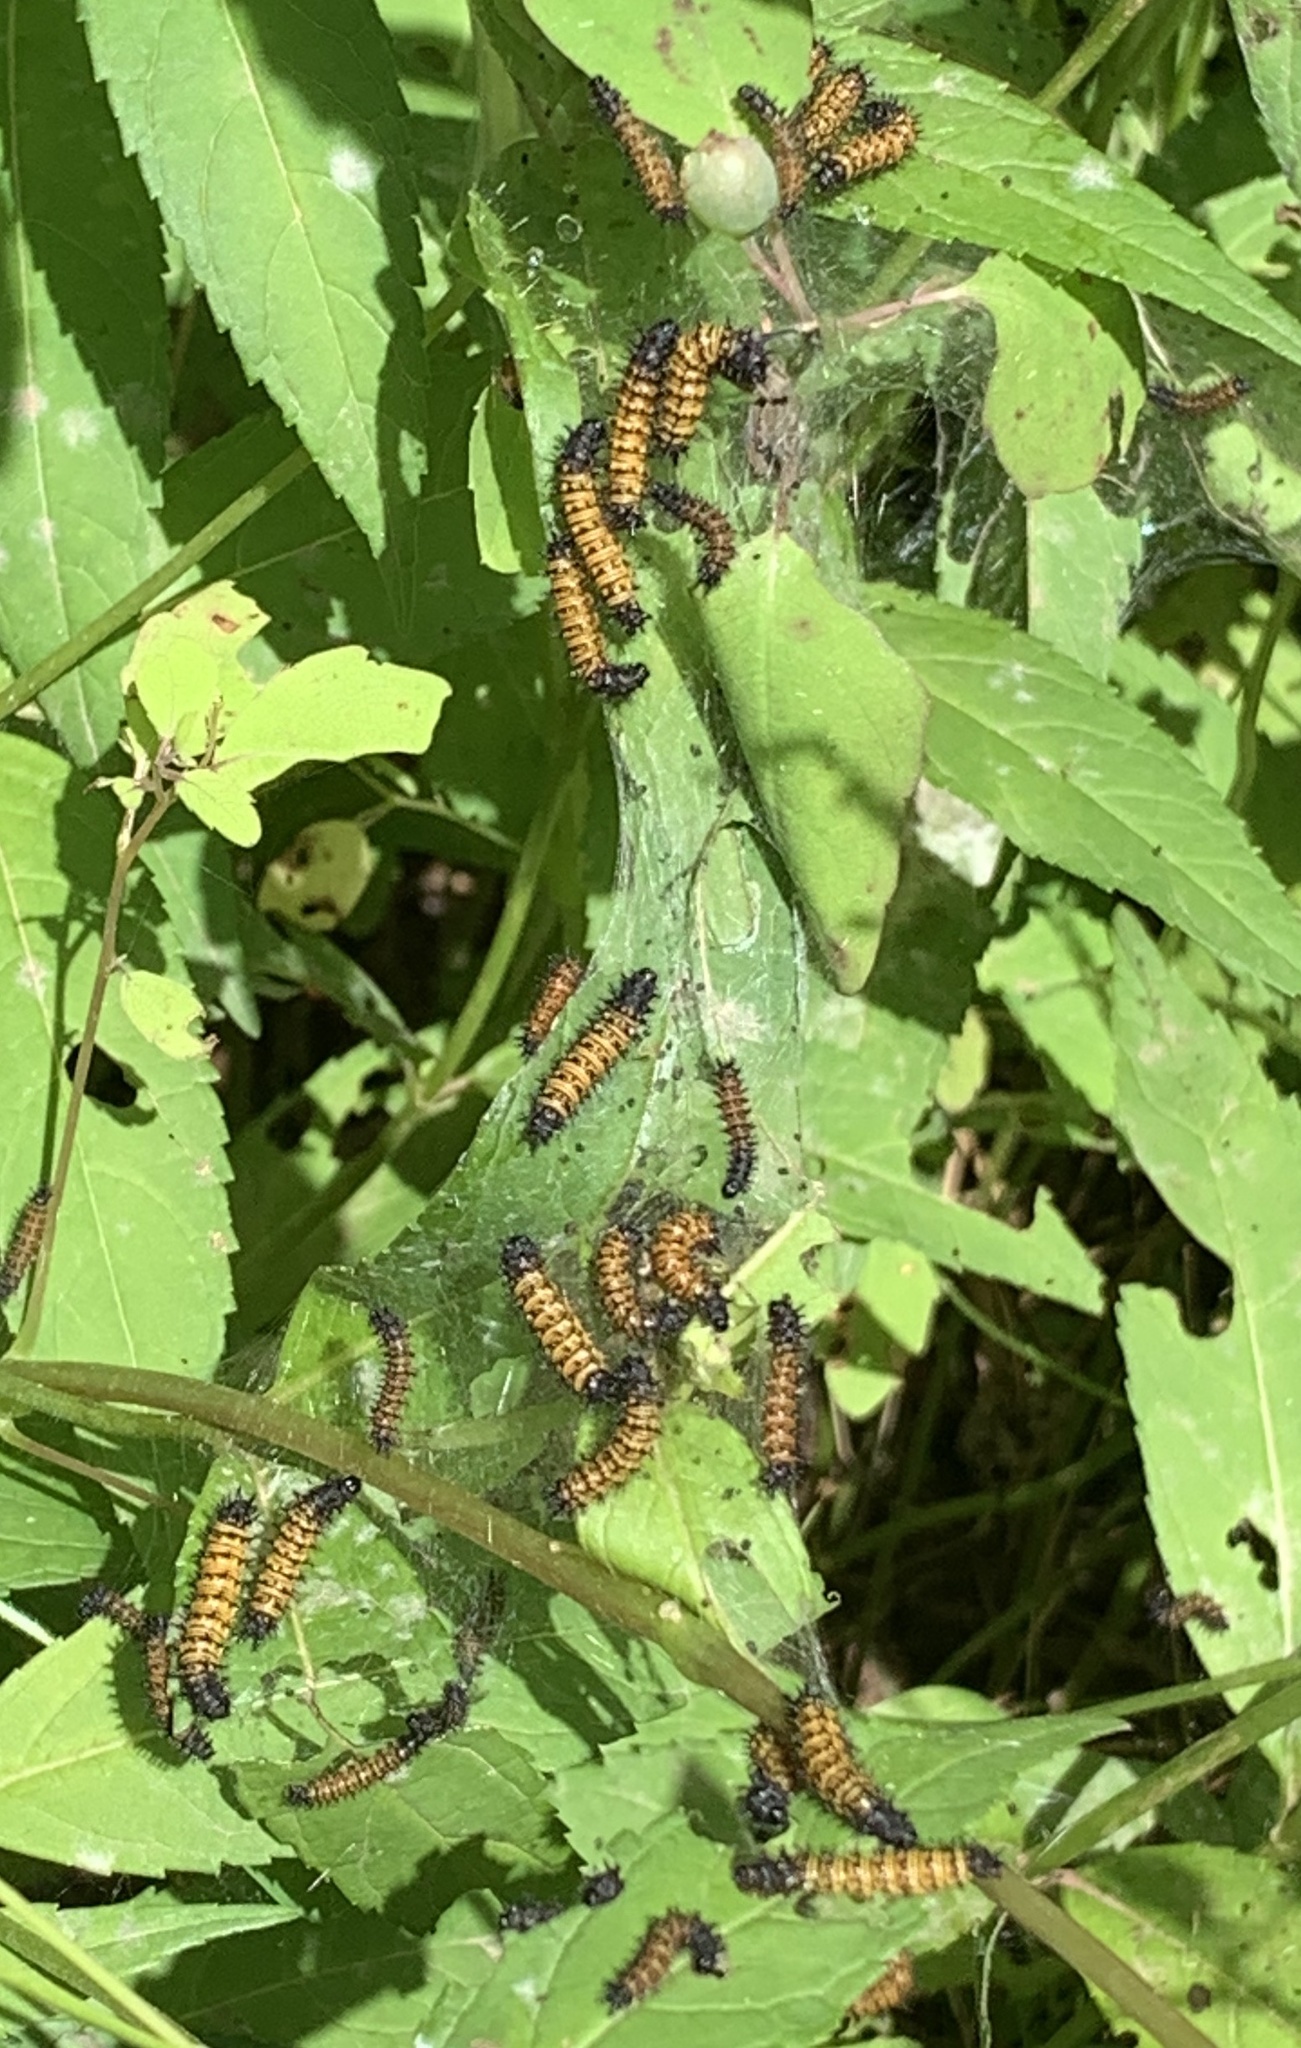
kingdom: Animalia
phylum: Arthropoda
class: Insecta
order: Lepidoptera
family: Nymphalidae
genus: Euphydryas
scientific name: Euphydryas phaeton
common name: Baltimore checkerspot
